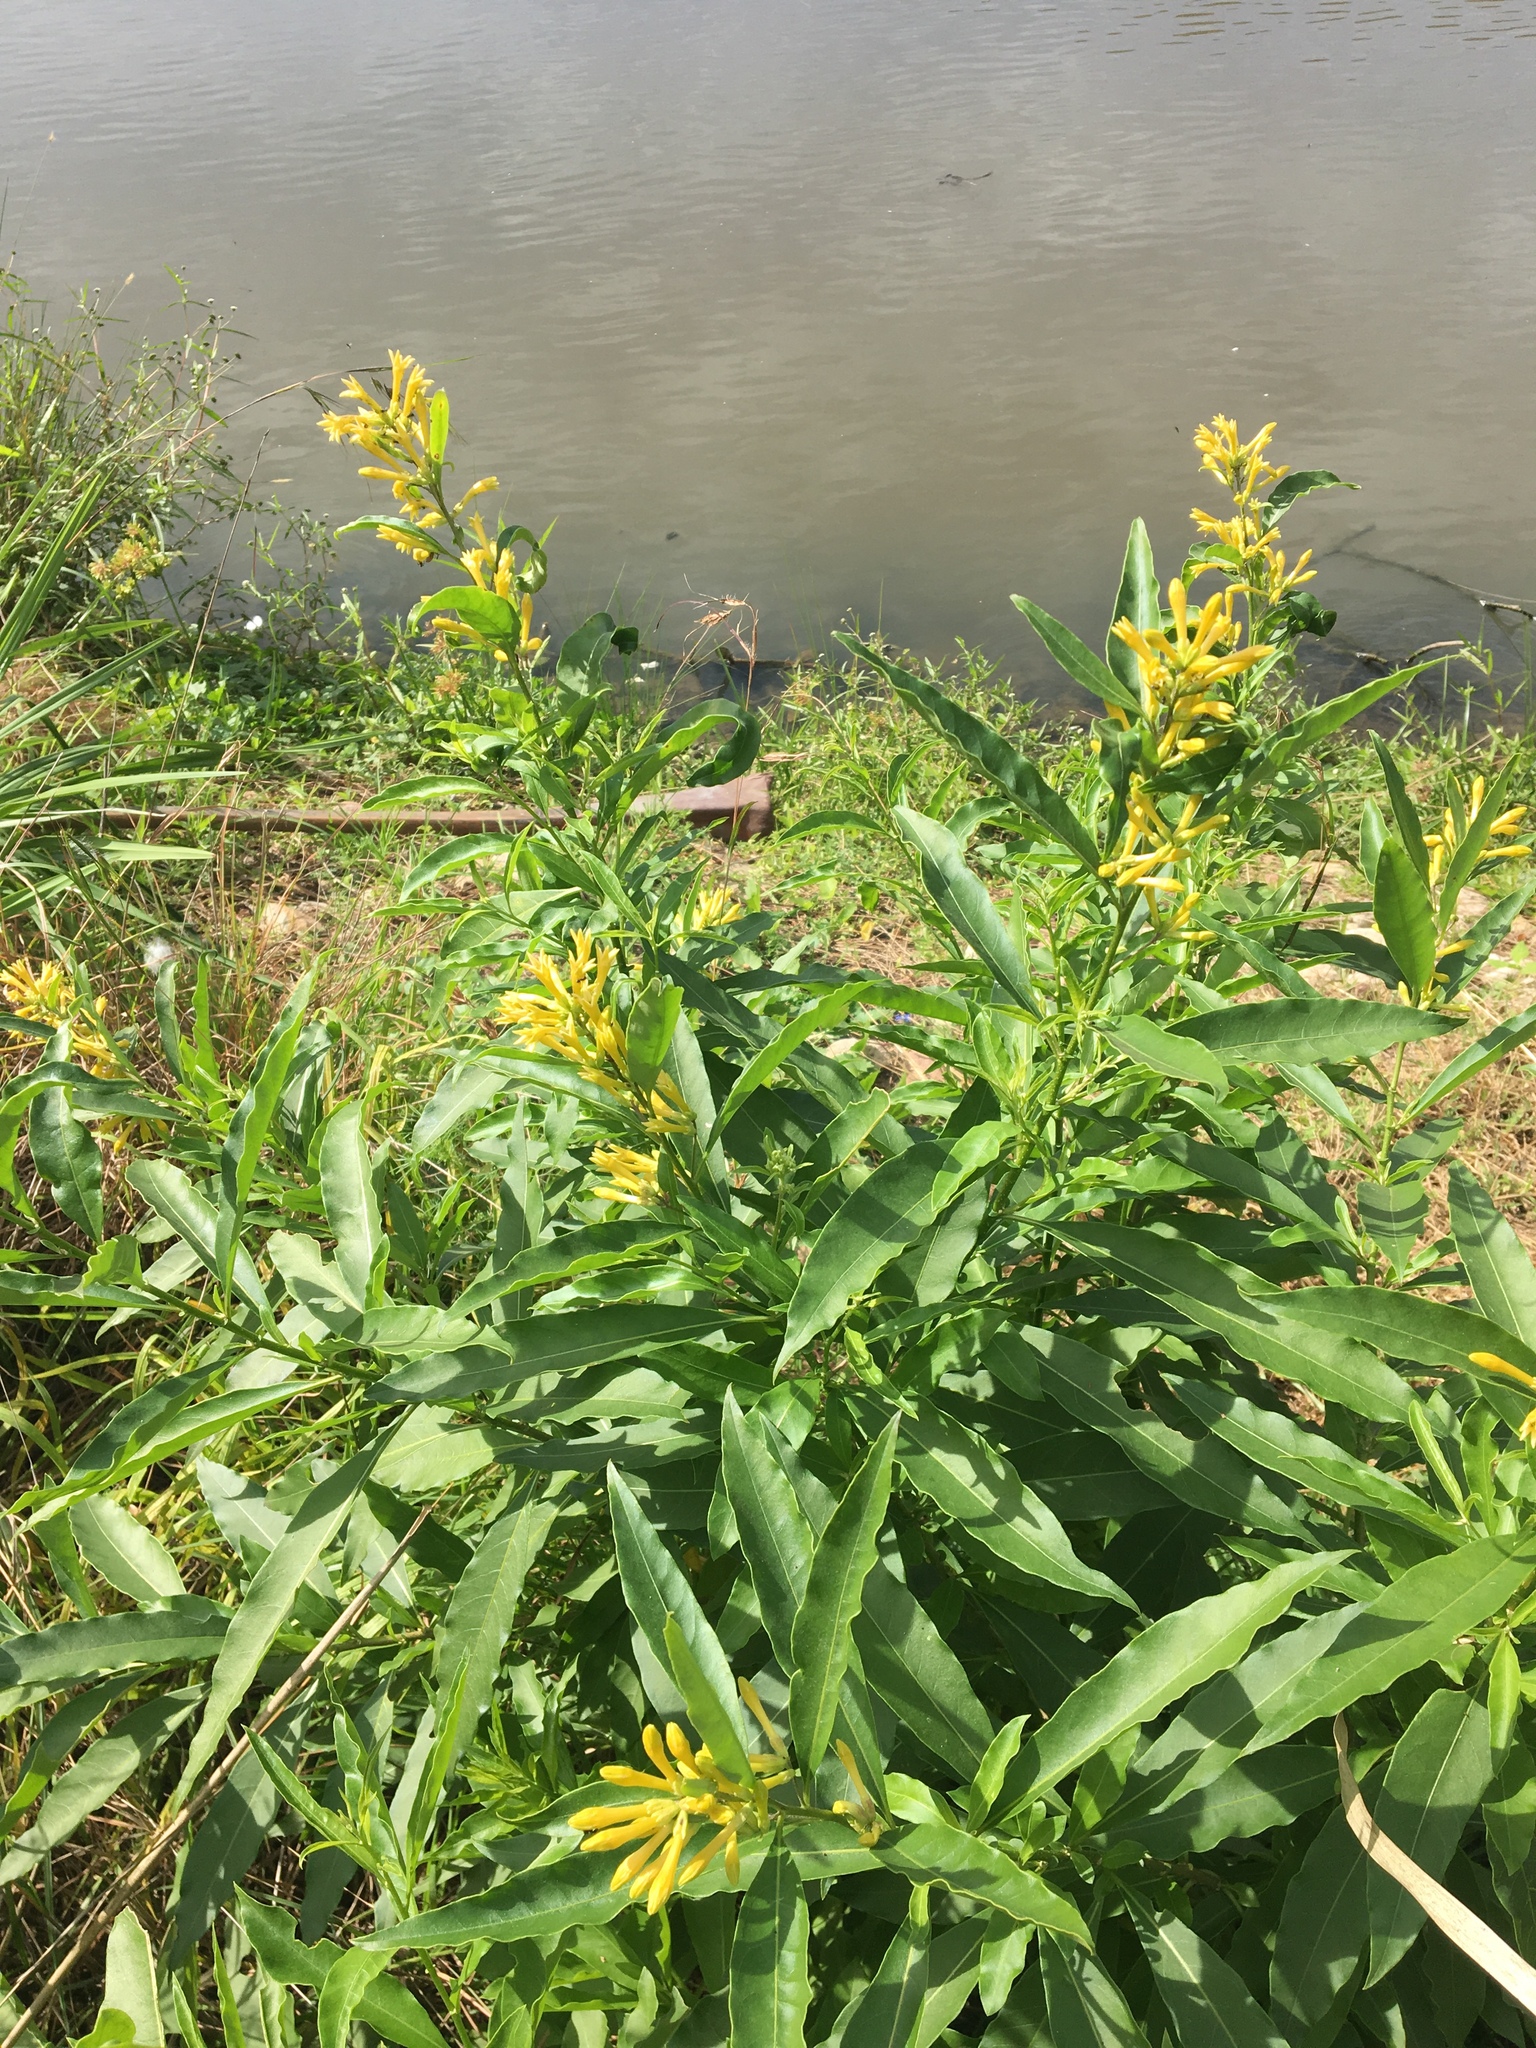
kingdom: Plantae
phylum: Tracheophyta
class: Magnoliopsida
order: Solanales
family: Solanaceae
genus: Cestrum
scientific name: Cestrum parqui
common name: Chilean cestrum
